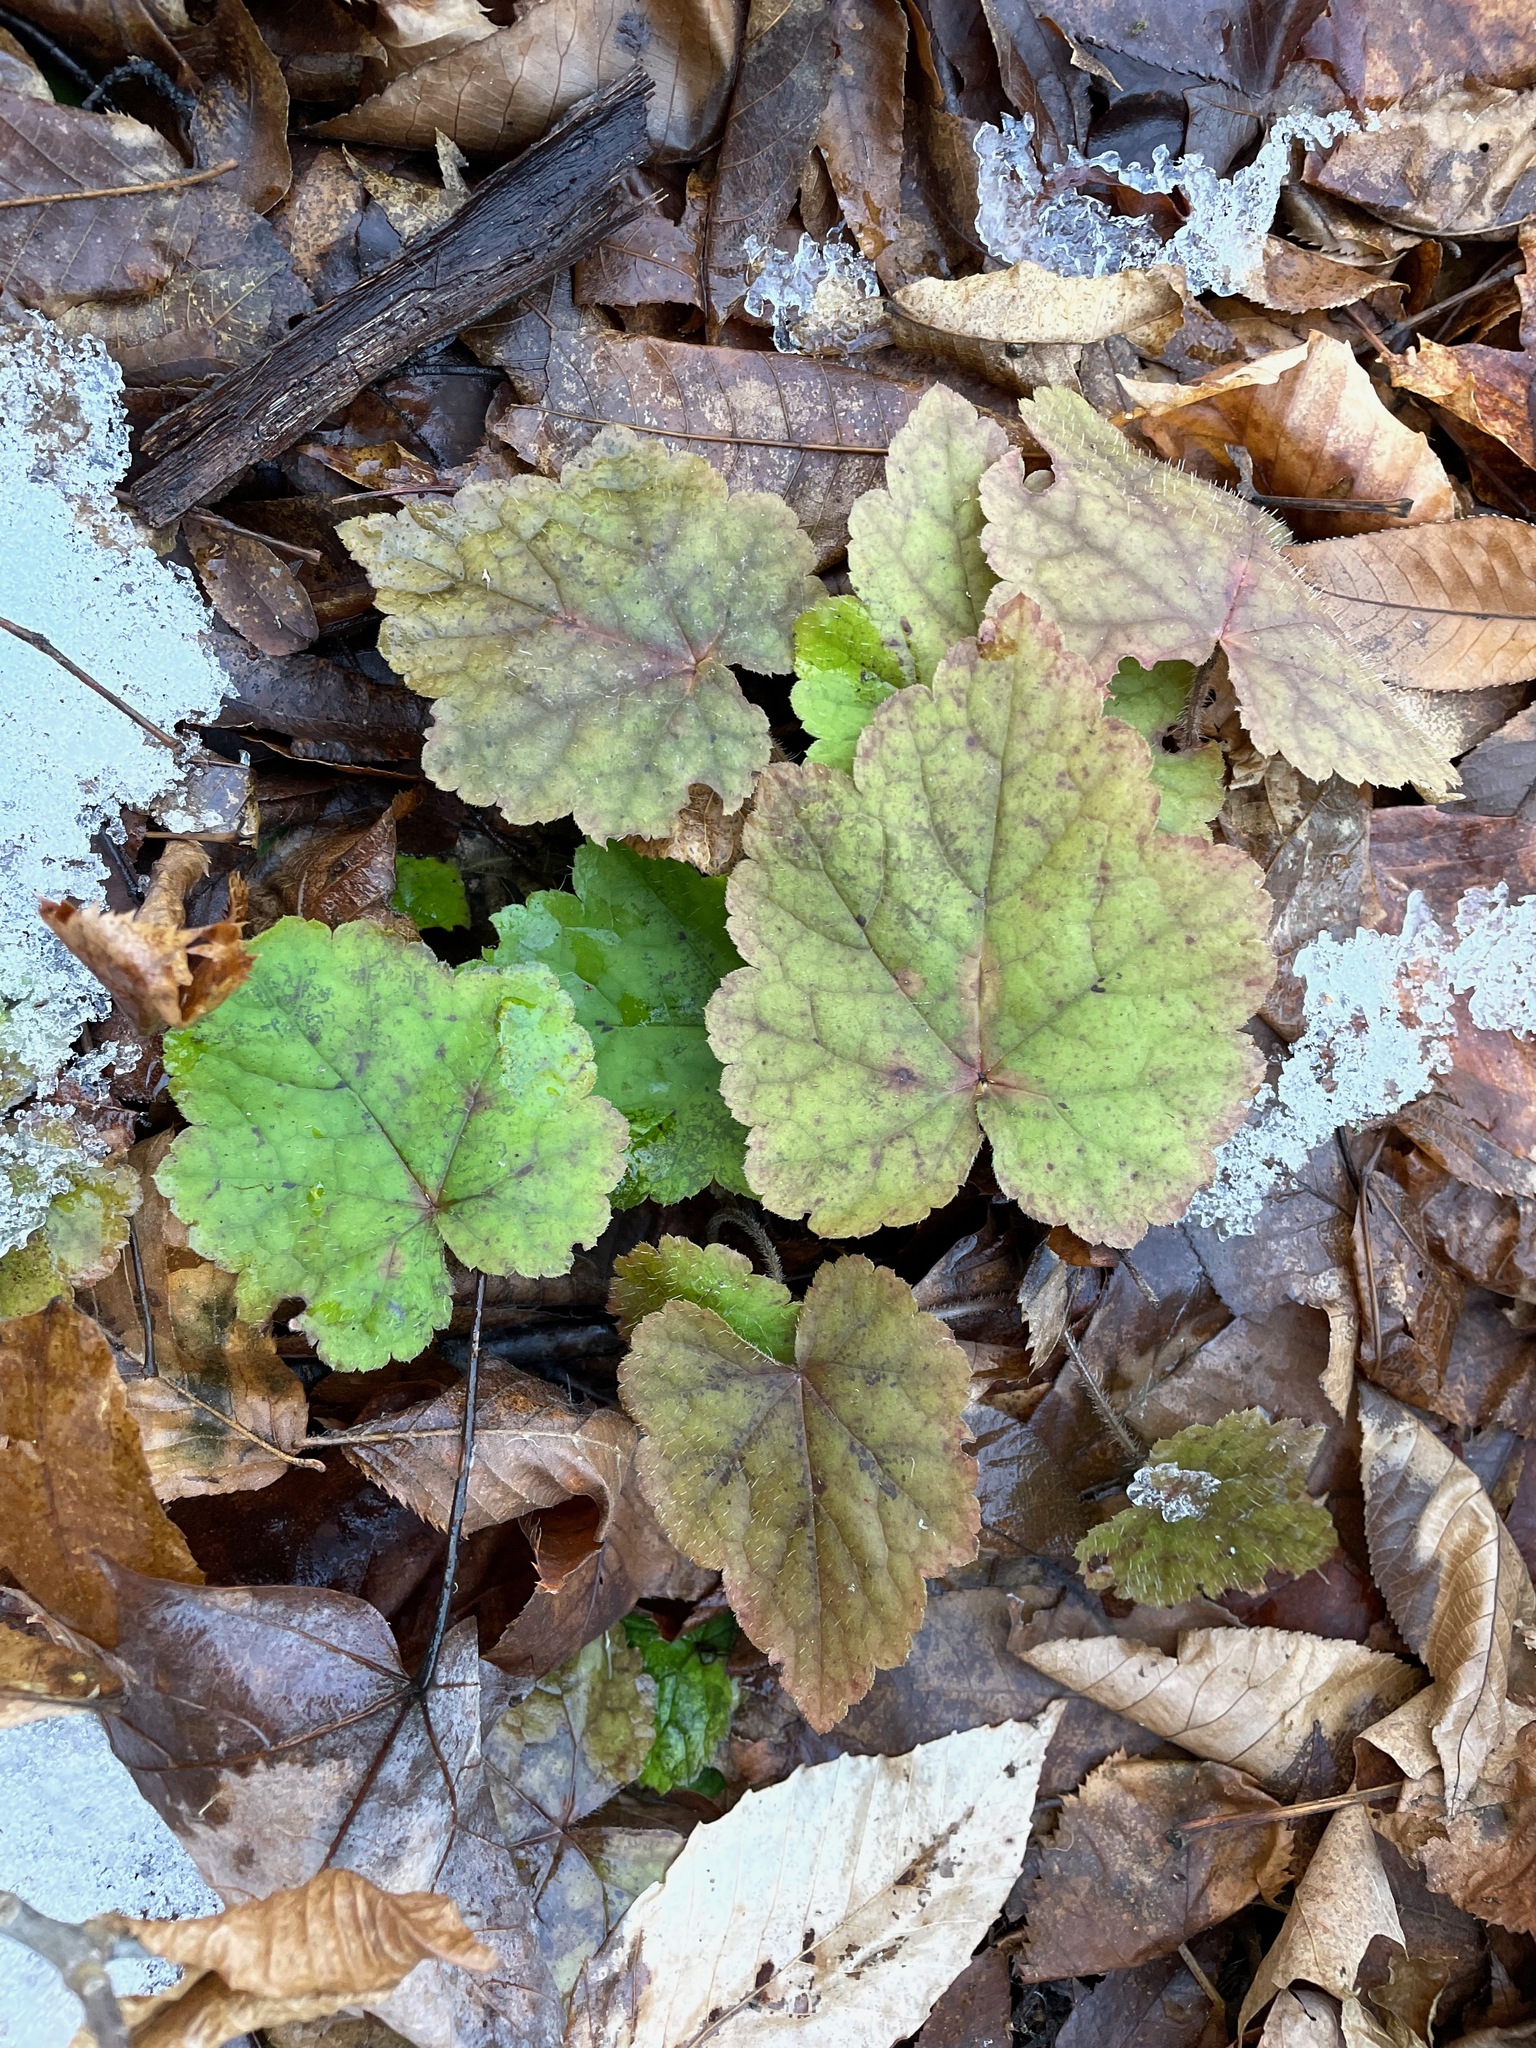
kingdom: Plantae
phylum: Tracheophyta
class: Magnoliopsida
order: Saxifragales
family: Saxifragaceae
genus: Tiarella
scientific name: Tiarella stolonifera
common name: Stoloniferous foamflower
